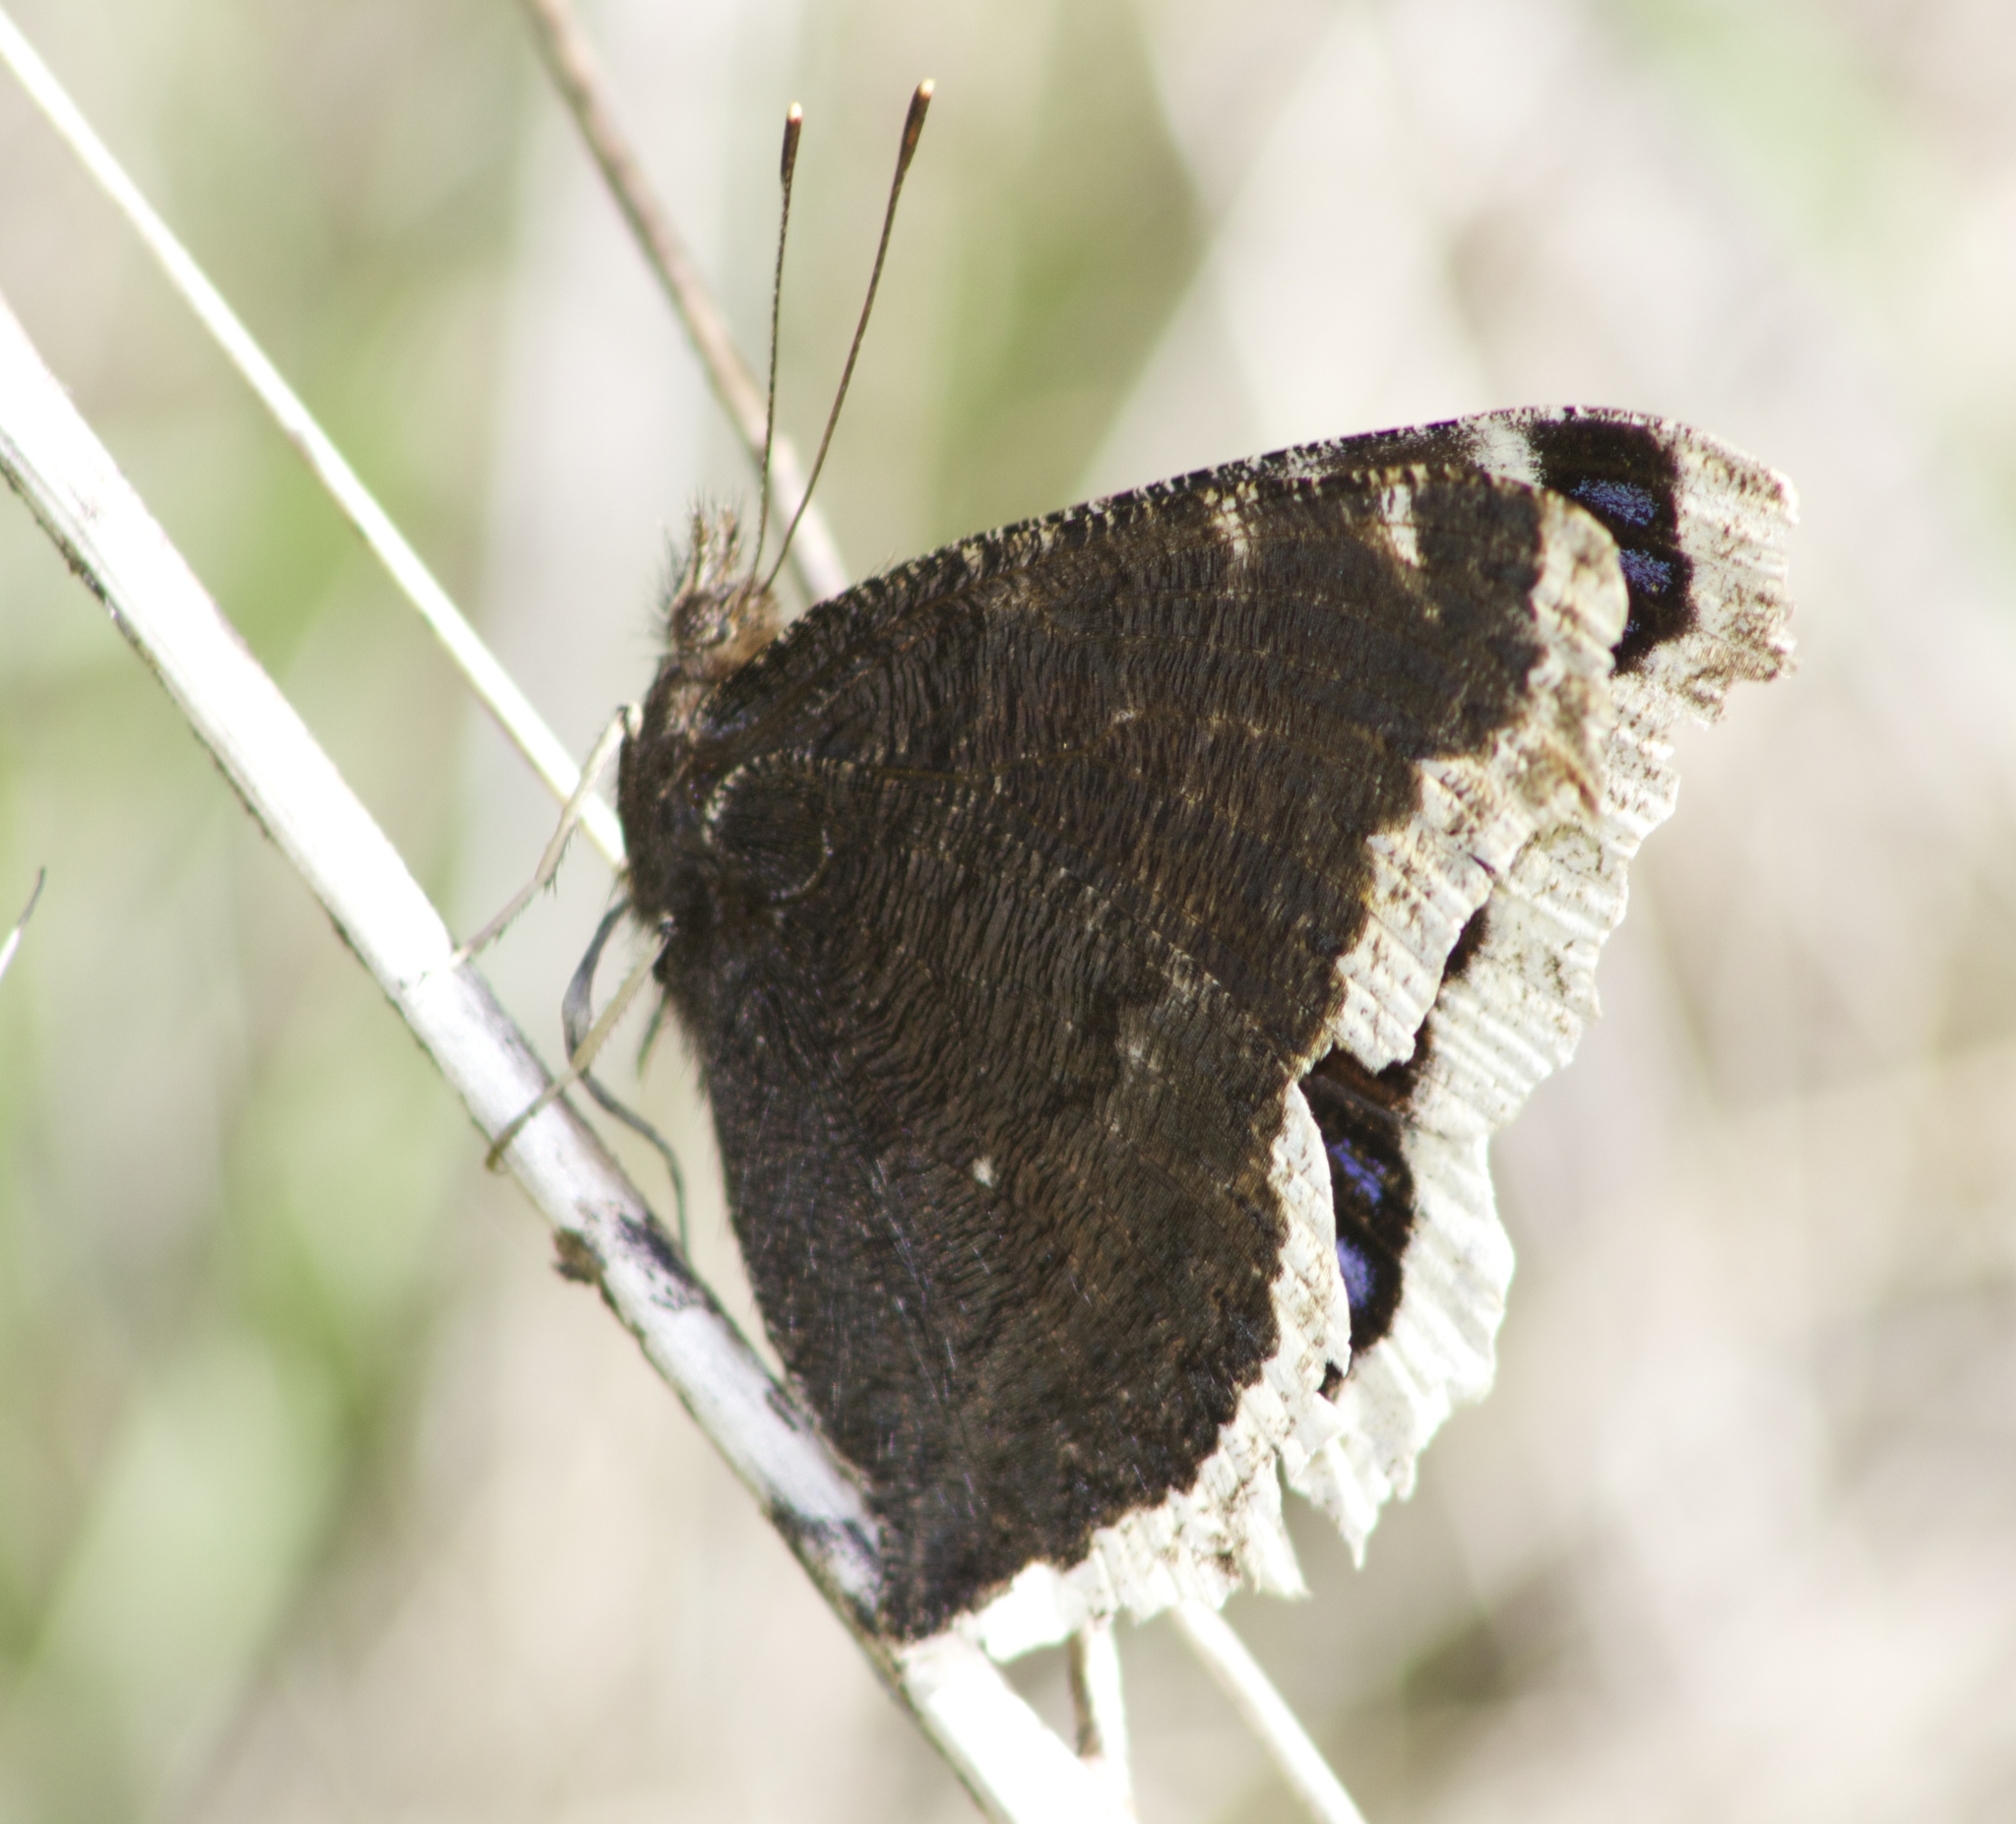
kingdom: Animalia
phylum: Arthropoda
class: Insecta
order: Lepidoptera
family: Nymphalidae
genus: Nymphalis
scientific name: Nymphalis antiopa
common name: Camberwell beauty
